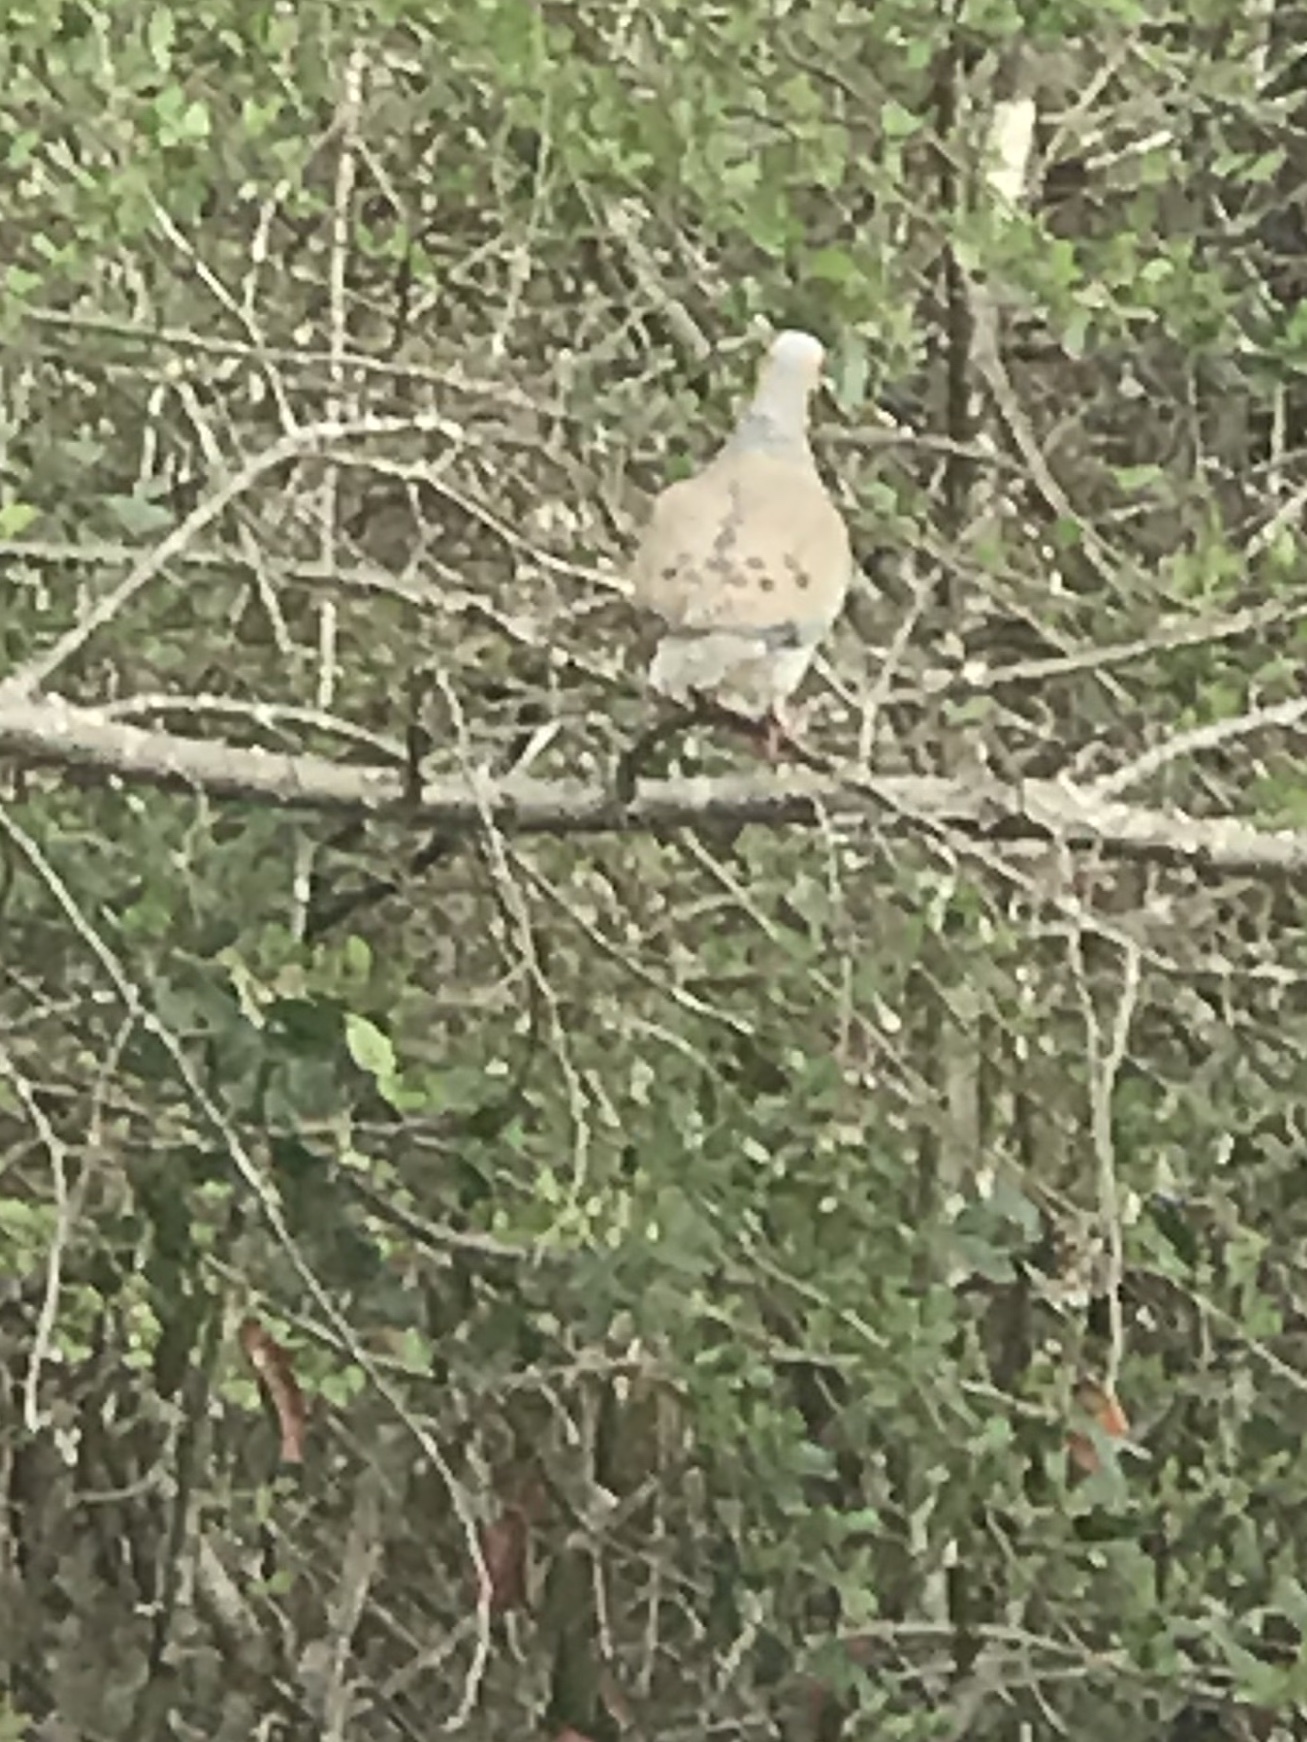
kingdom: Animalia
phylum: Chordata
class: Aves
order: Columbiformes
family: Columbidae
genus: Zenaida
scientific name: Zenaida macroura
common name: Mourning dove
